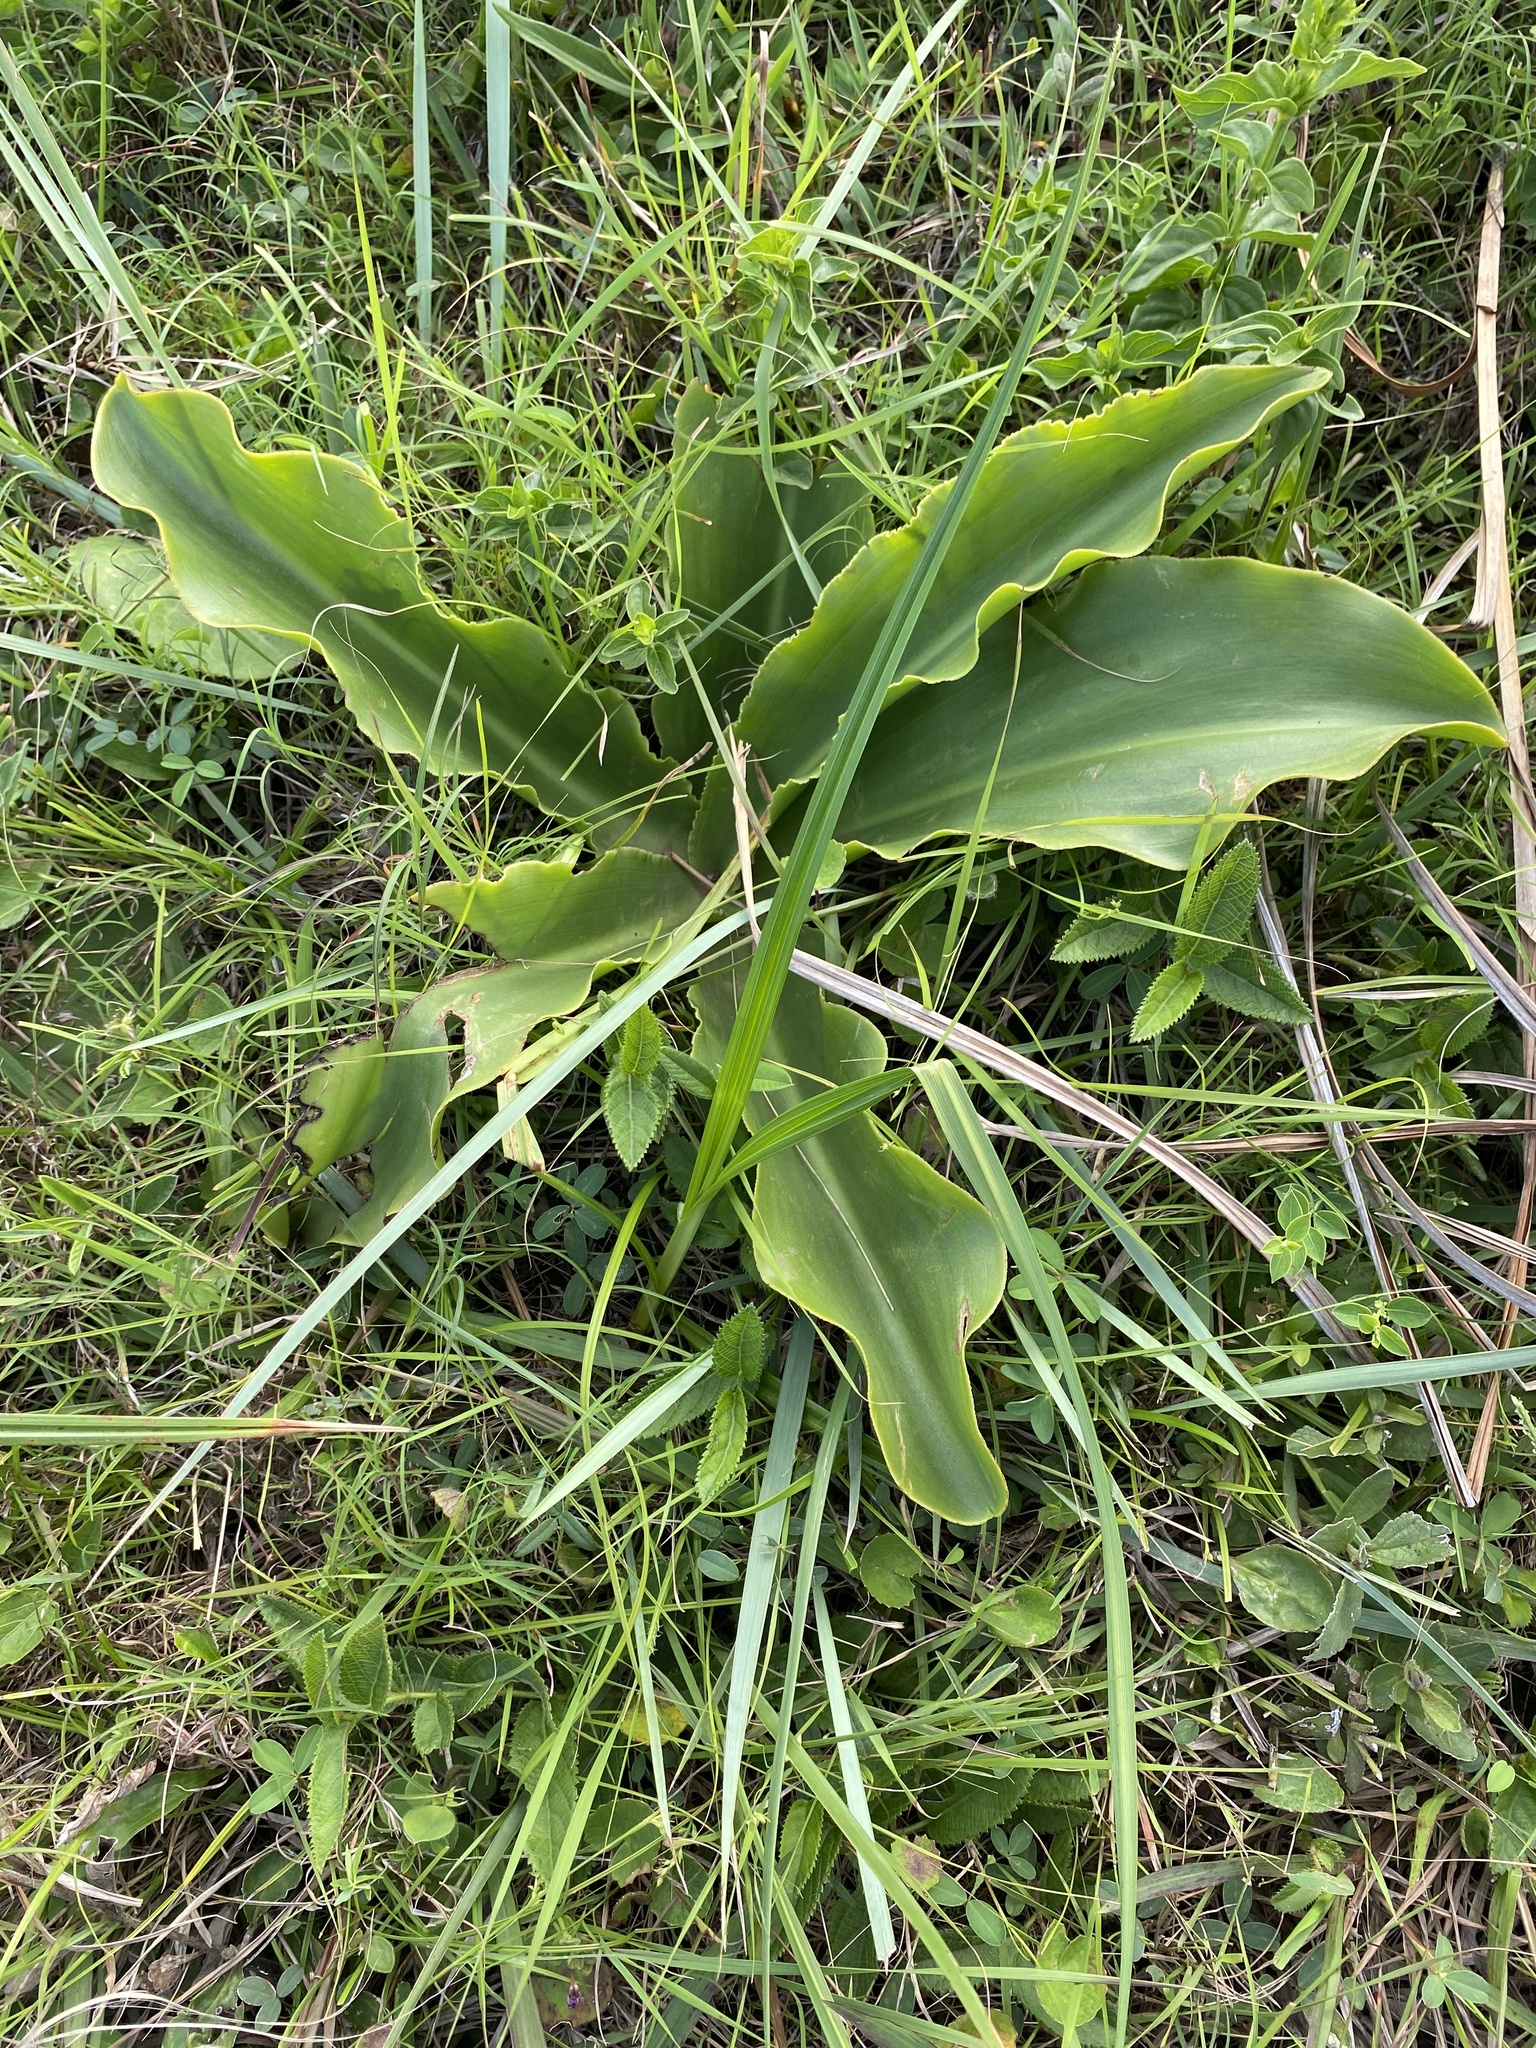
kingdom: Plantae
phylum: Tracheophyta
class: Liliopsida
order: Asparagales
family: Asparagaceae
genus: Eucomis
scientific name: Eucomis autumnalis
